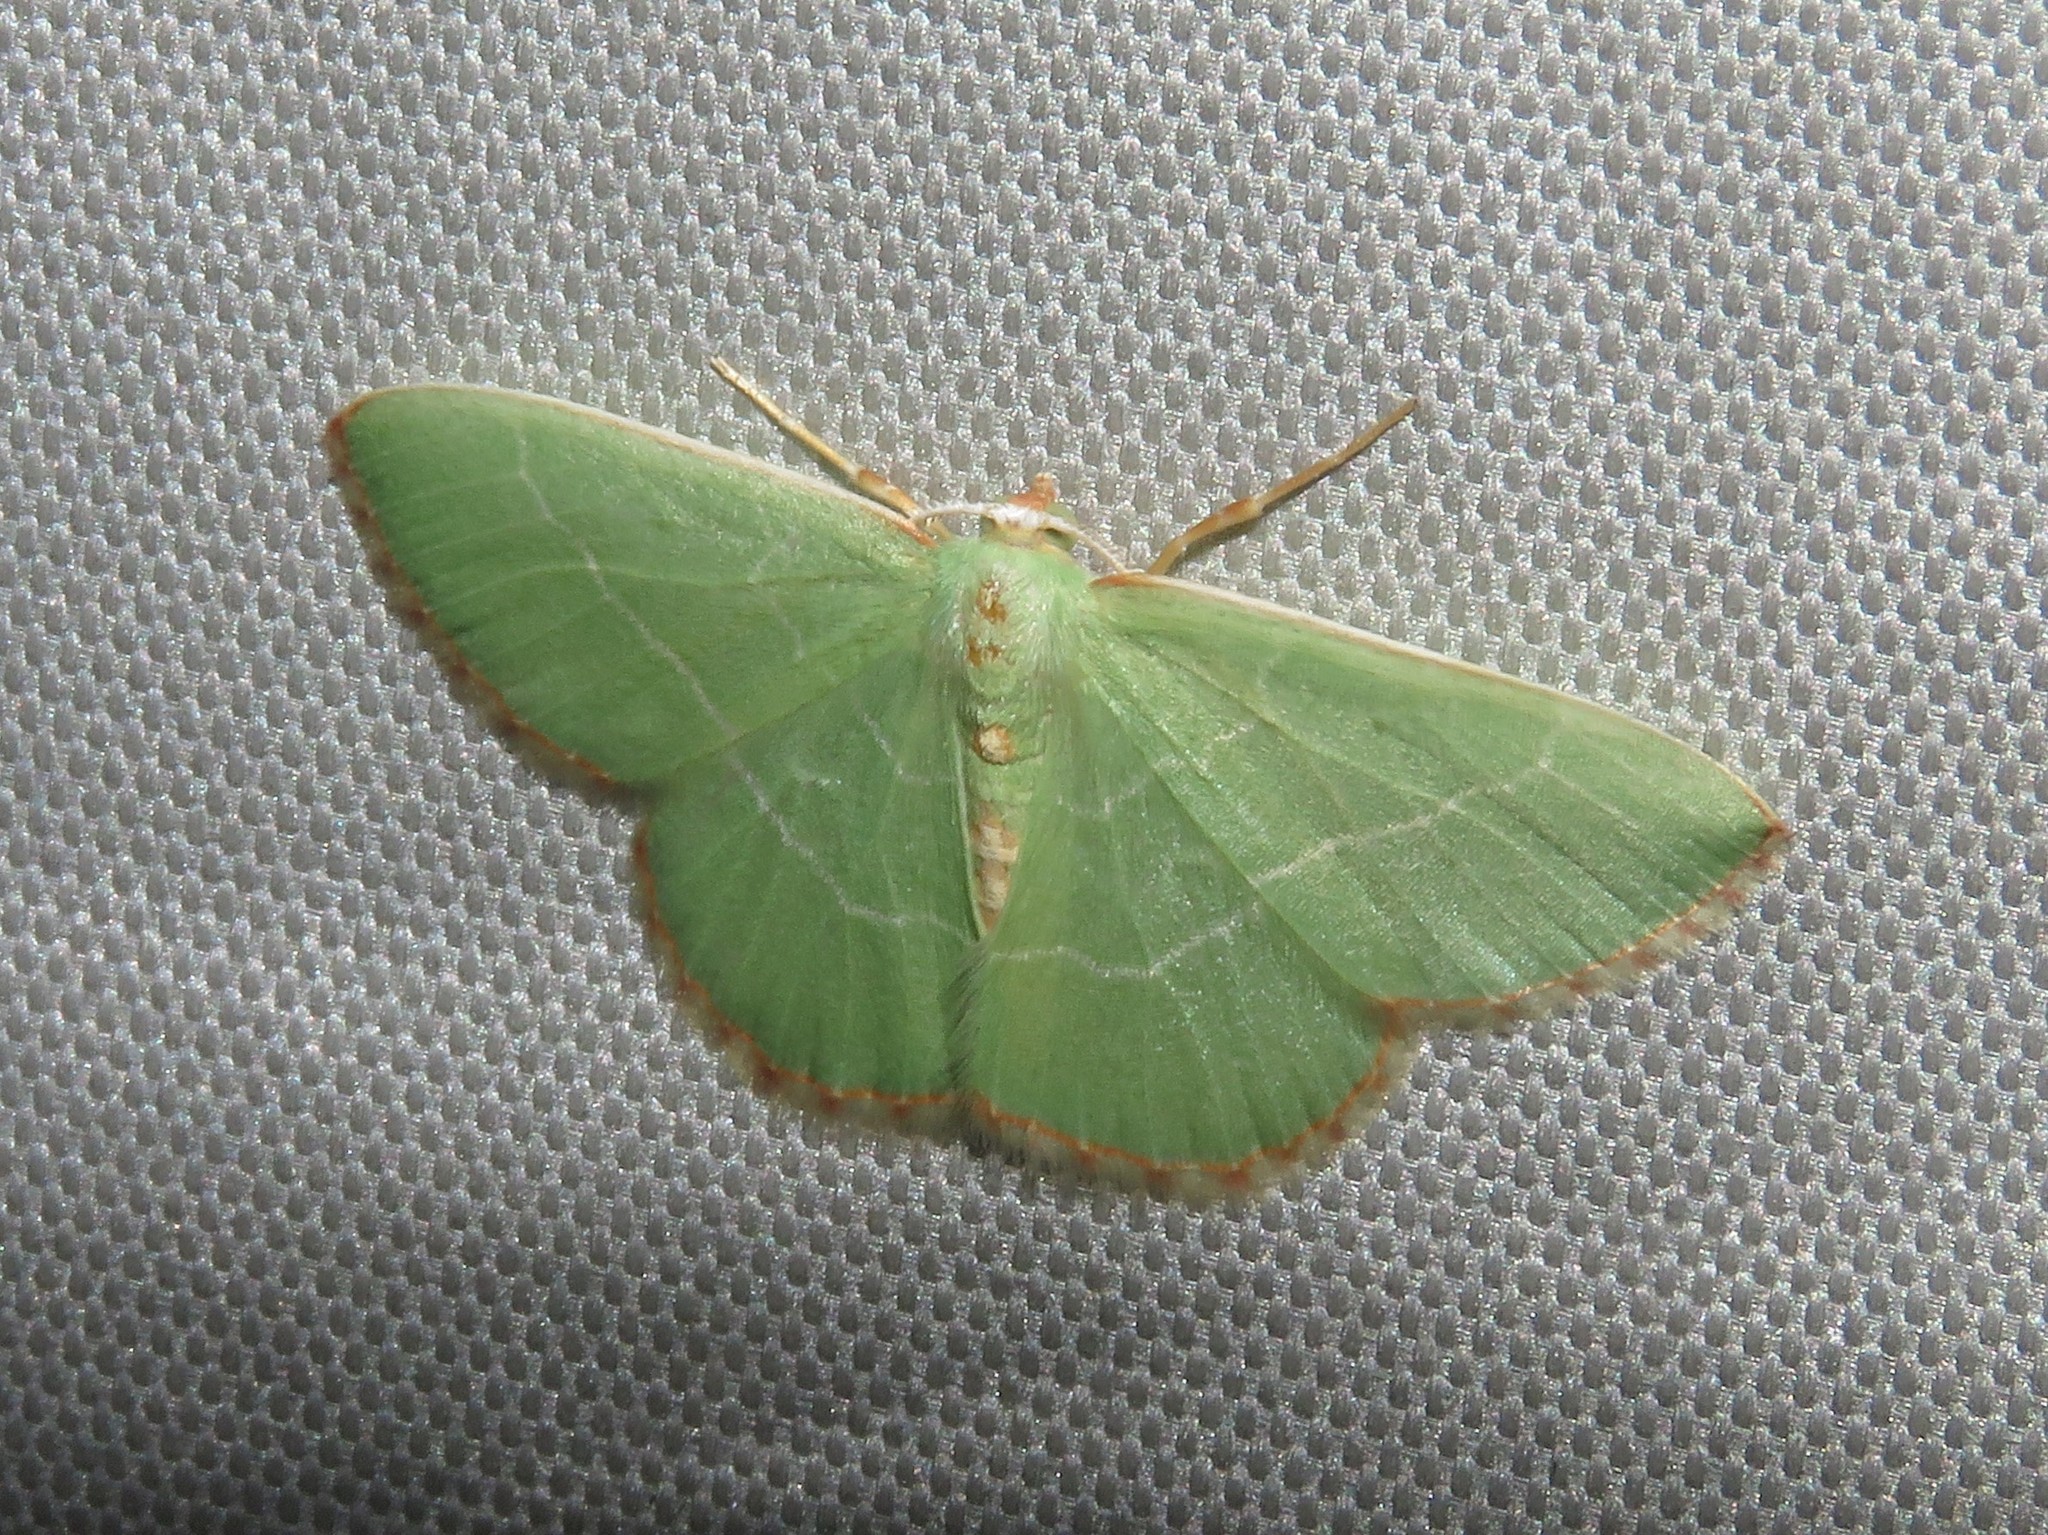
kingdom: Animalia
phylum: Arthropoda
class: Insecta
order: Lepidoptera
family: Geometridae
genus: Nemoria
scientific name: Nemoria bistriaria
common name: Red-fringed emerald
